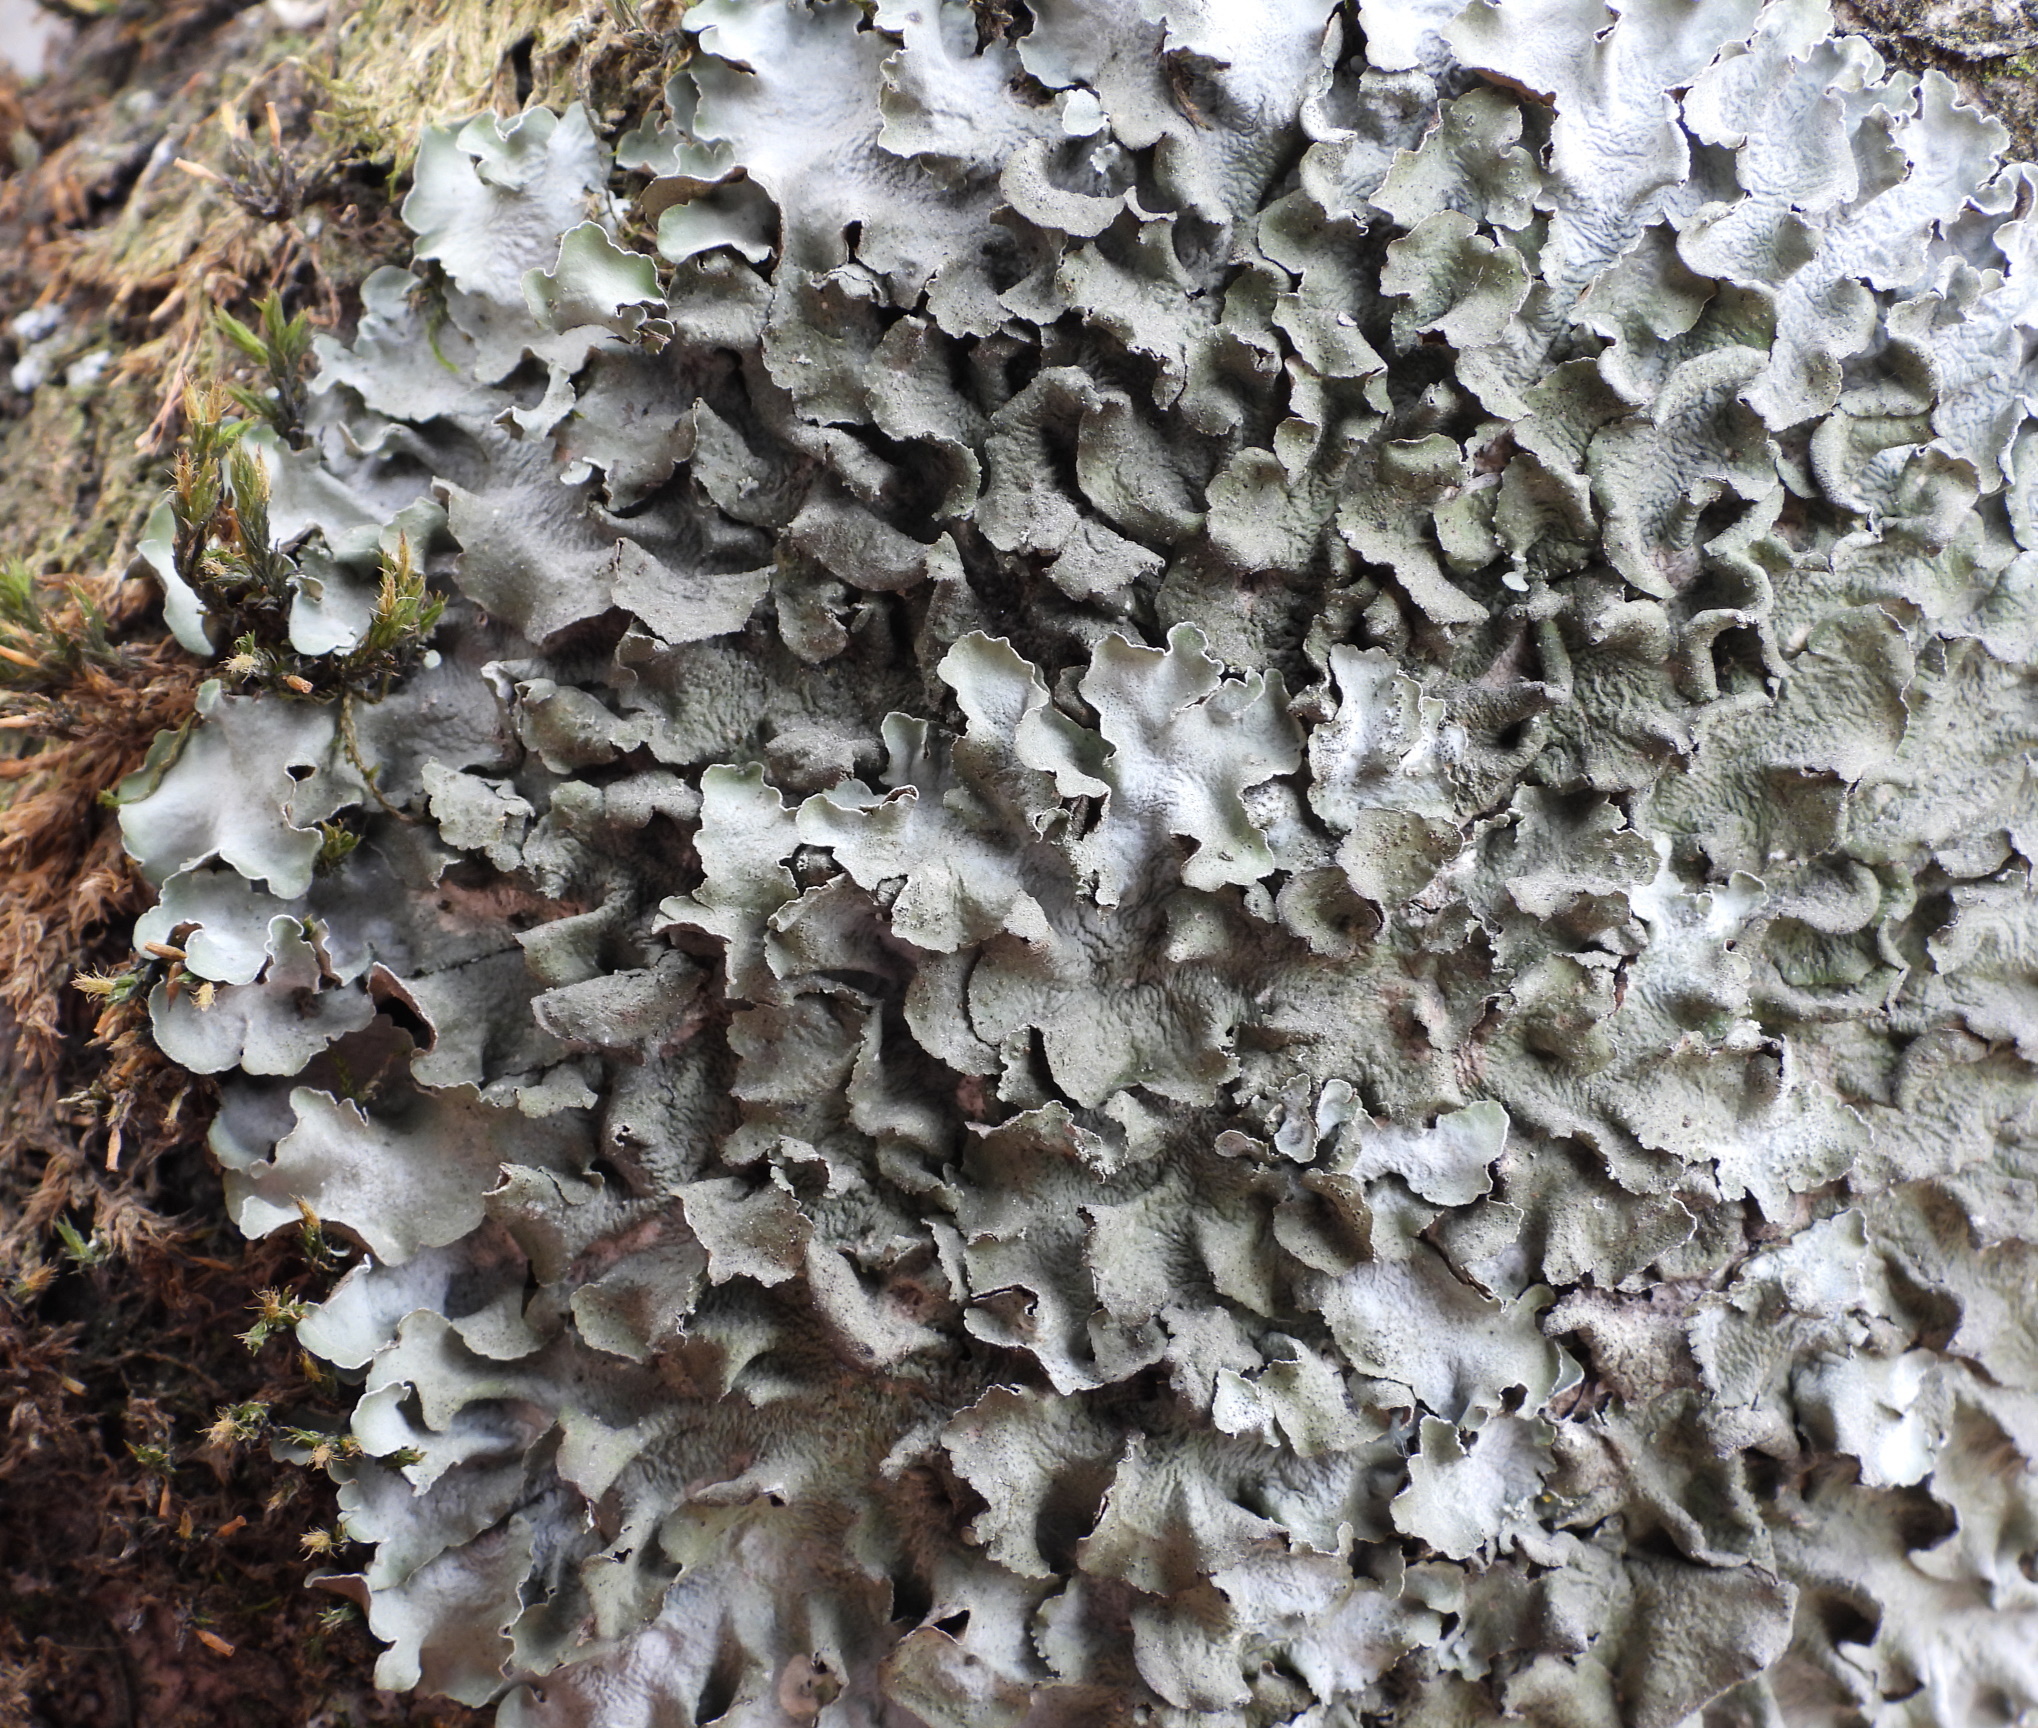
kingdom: Fungi
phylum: Ascomycota
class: Lecanoromycetes
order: Lecanorales
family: Parmeliaceae
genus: Pleurosticta
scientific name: Pleurosticta acetabulum
